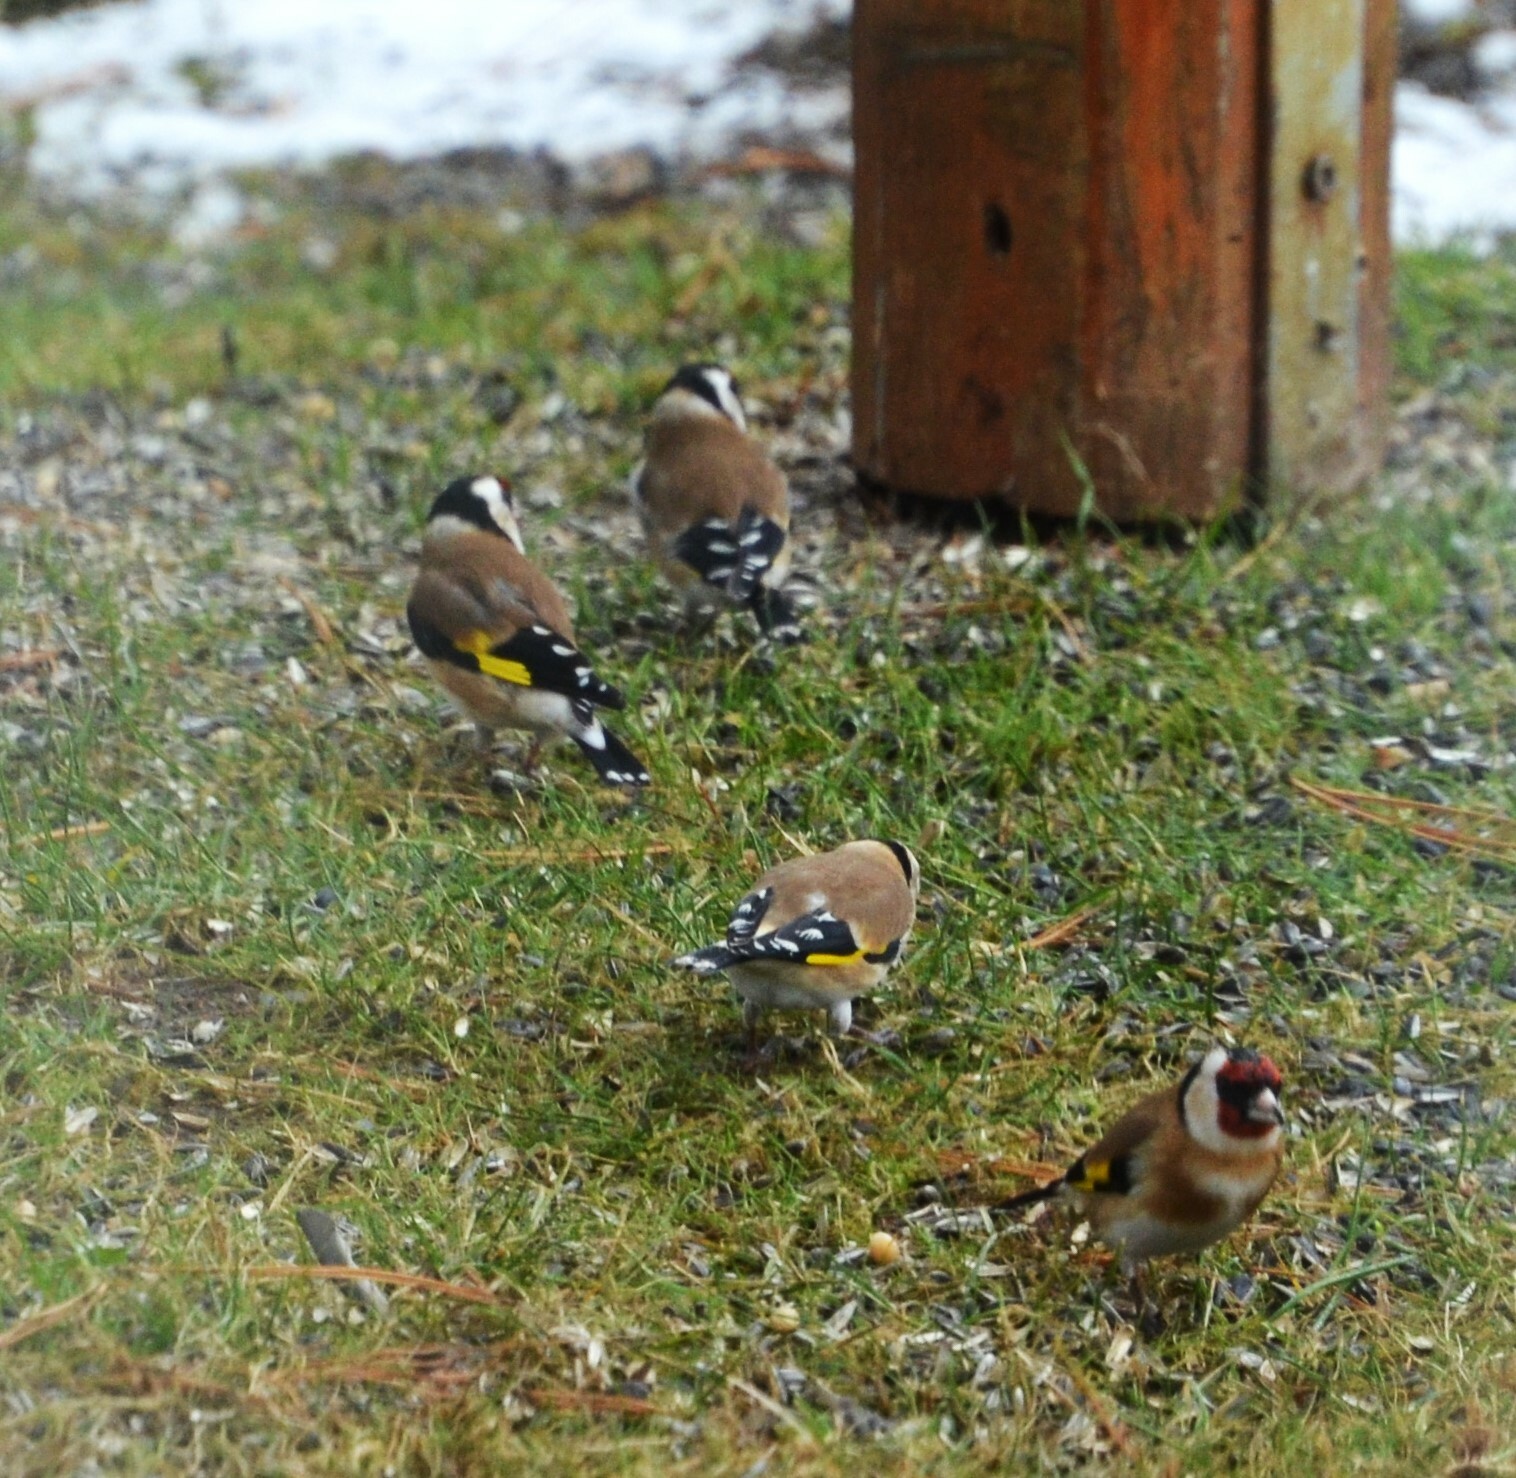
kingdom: Animalia
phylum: Chordata
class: Aves
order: Passeriformes
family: Fringillidae
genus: Carduelis
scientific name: Carduelis carduelis
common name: European goldfinch
